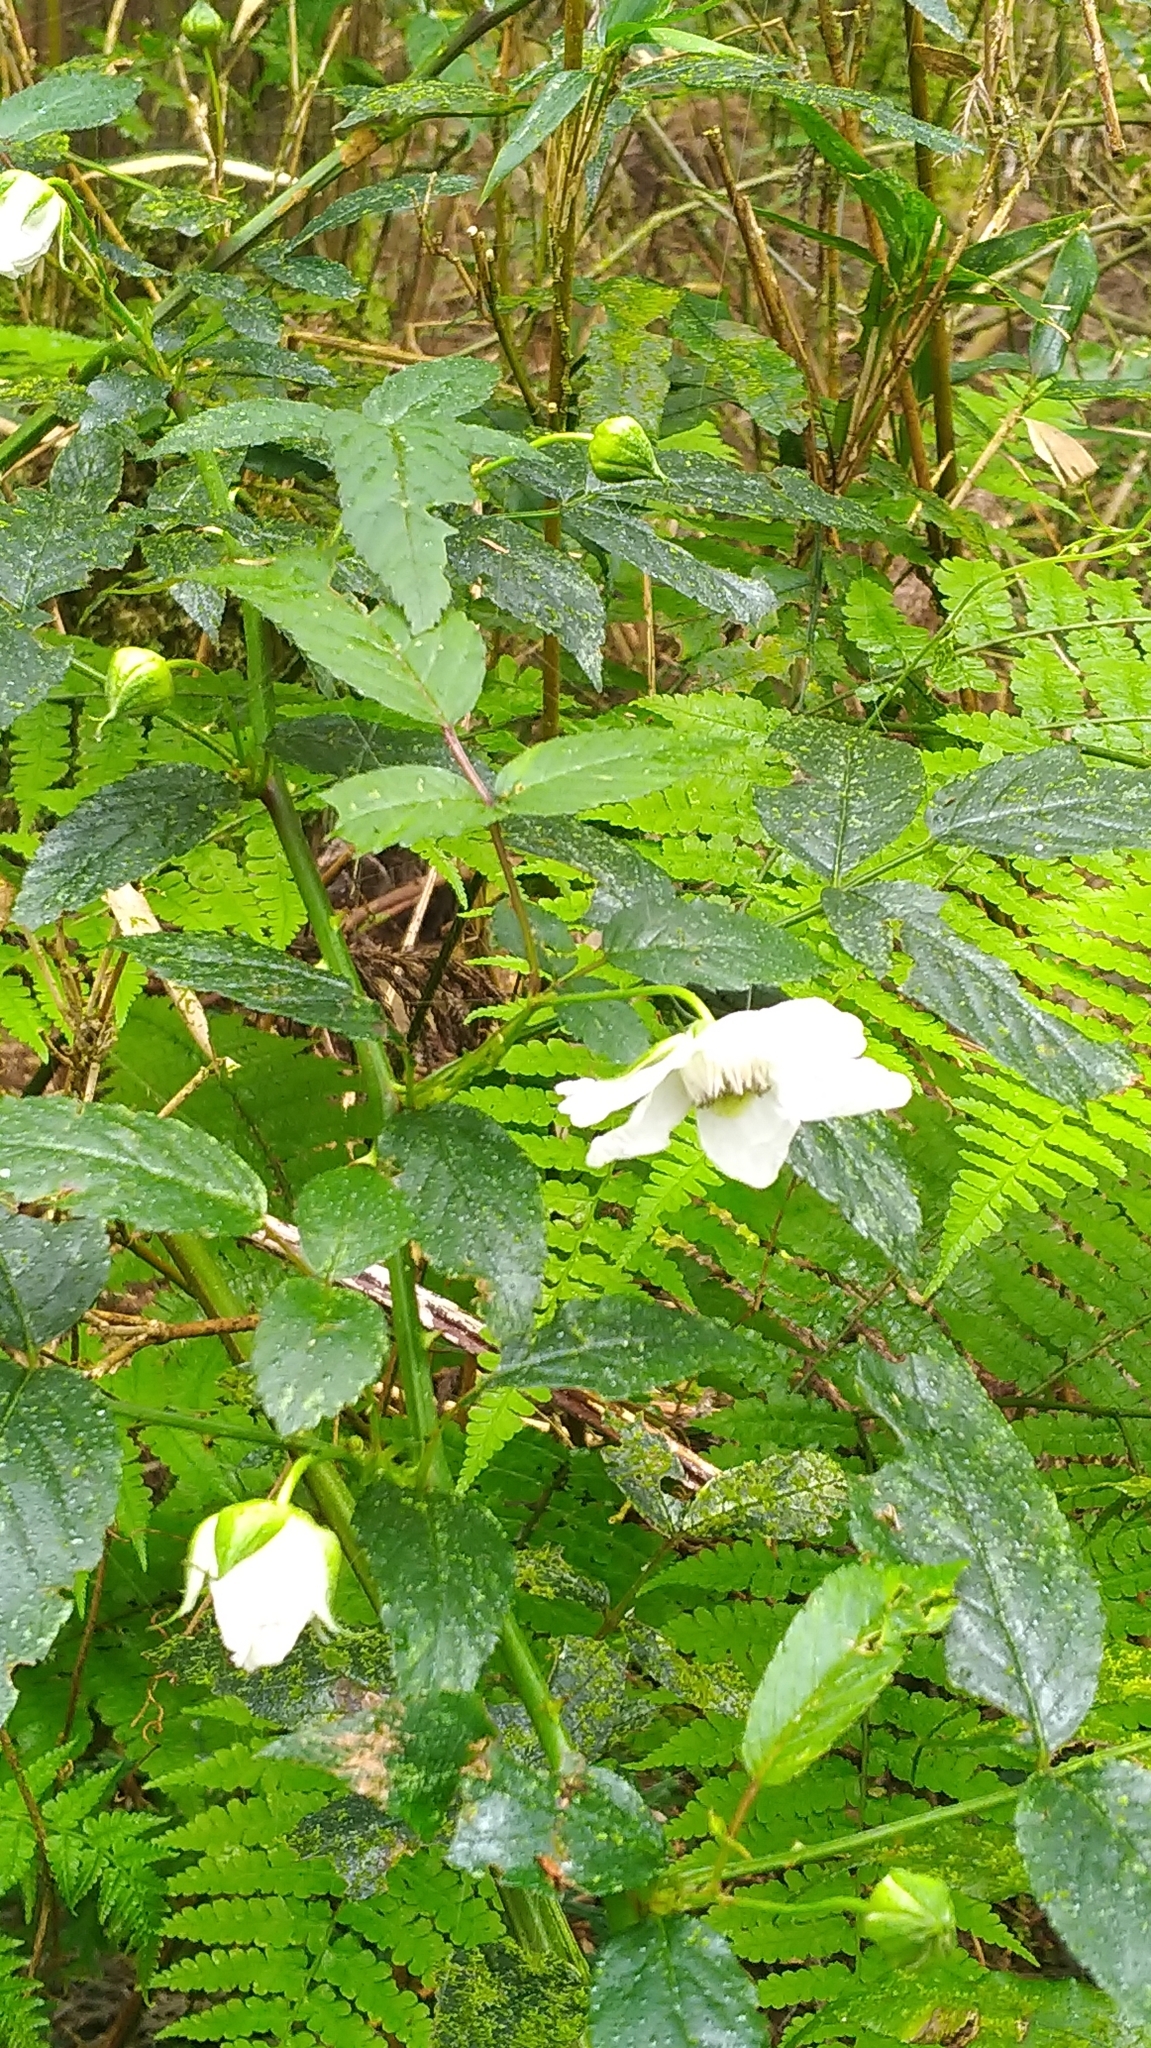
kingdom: Plantae
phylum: Tracheophyta
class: Magnoliopsida
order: Rosales
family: Rosaceae
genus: Rubus
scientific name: Rubus croceacanthus
